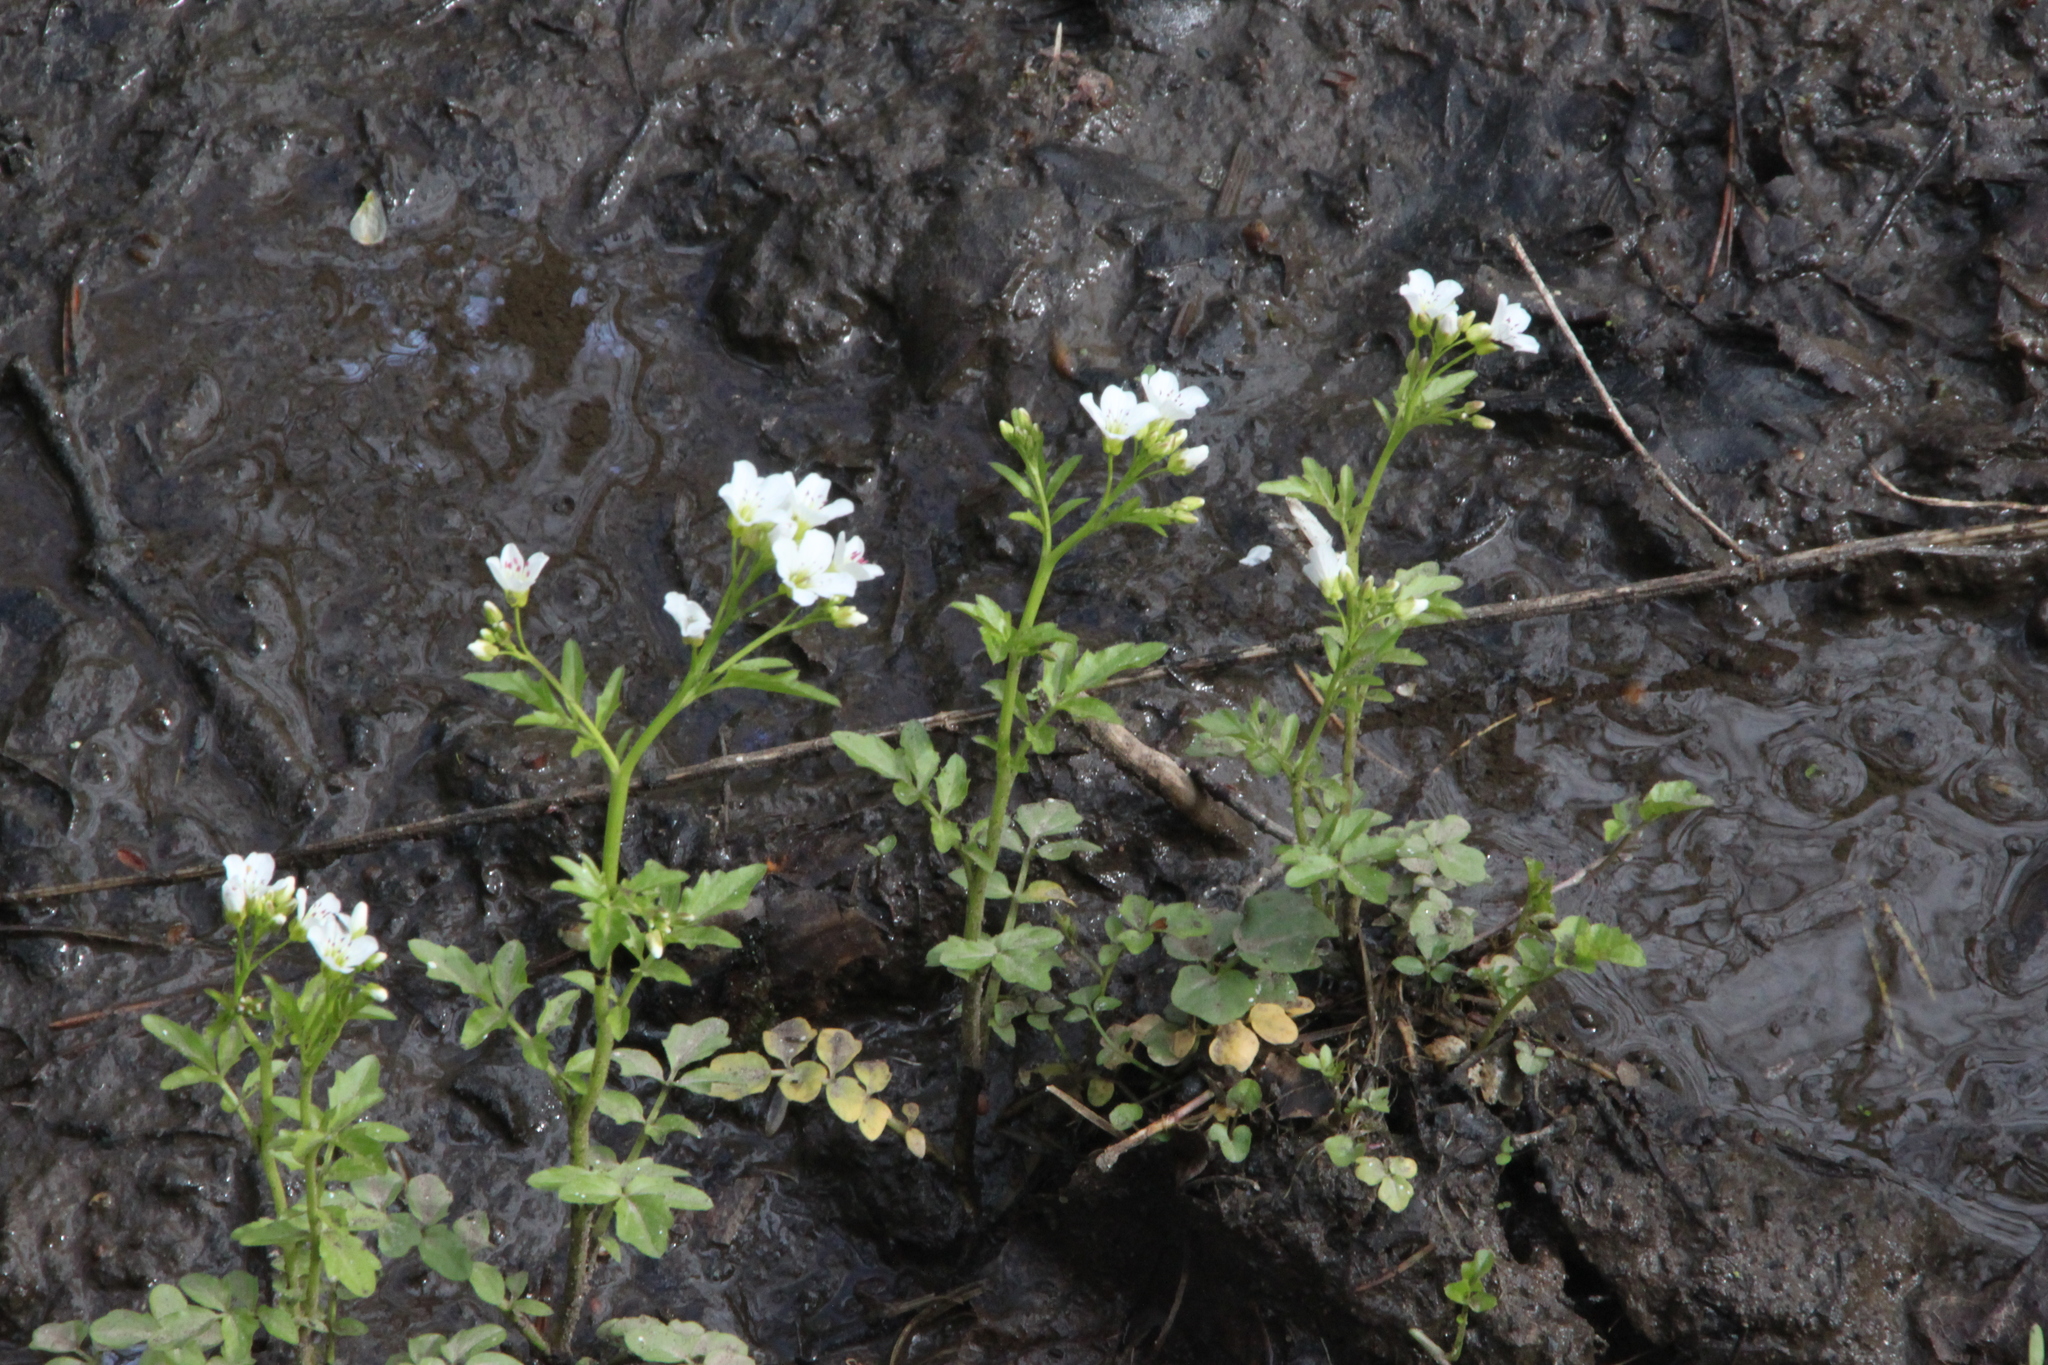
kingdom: Plantae
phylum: Tracheophyta
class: Magnoliopsida
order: Brassicales
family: Brassicaceae
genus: Cardamine
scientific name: Cardamine amara
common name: Large bitter-cress
